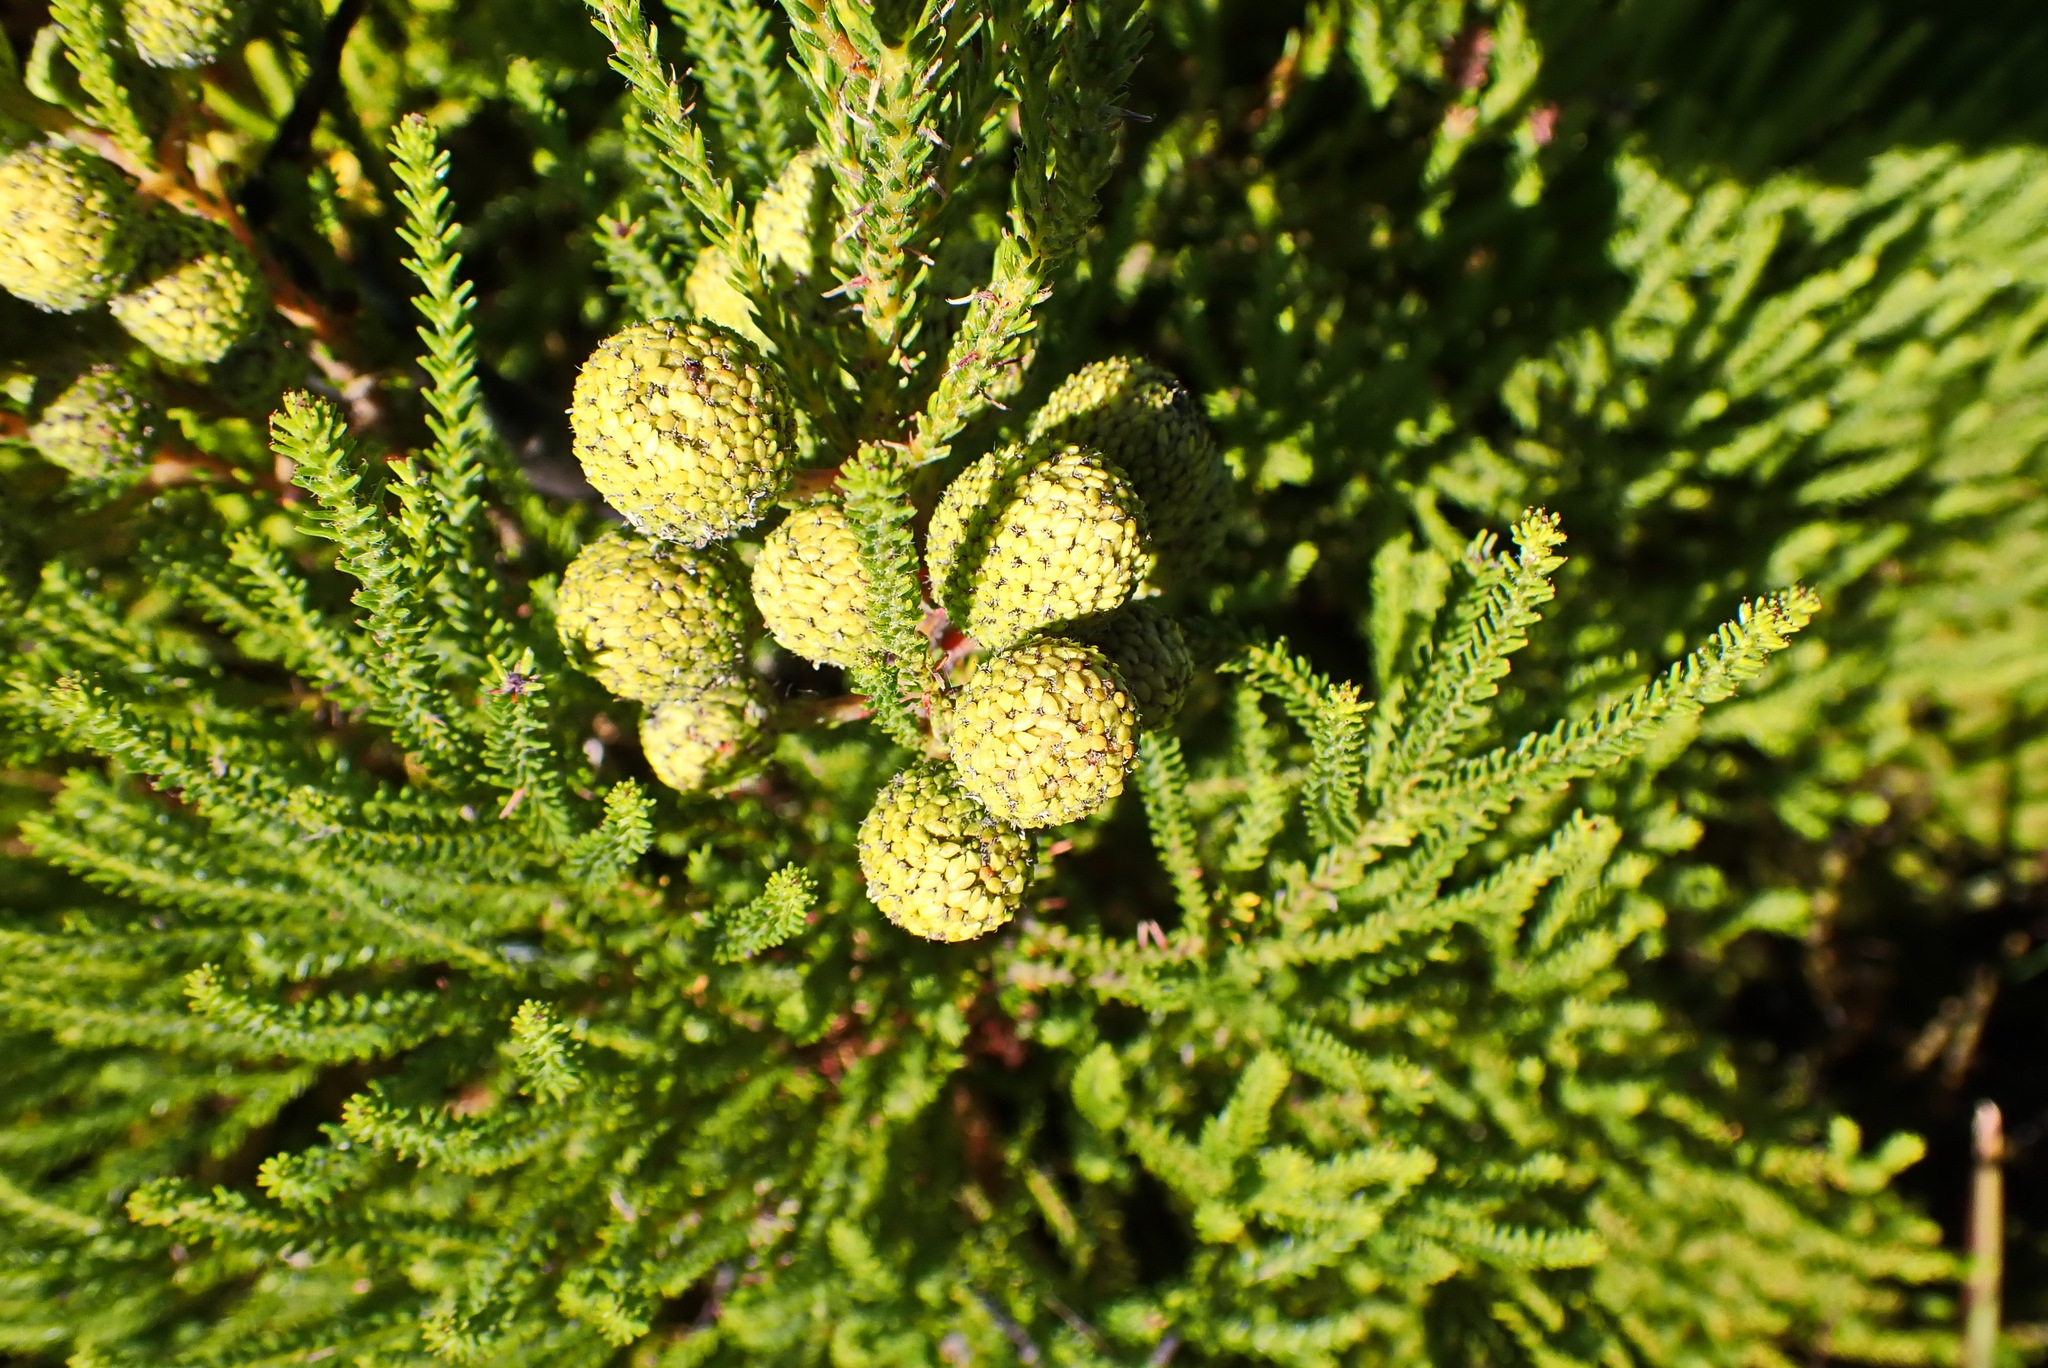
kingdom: Plantae
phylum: Tracheophyta
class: Magnoliopsida
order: Bruniales
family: Bruniaceae
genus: Berzelia
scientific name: Berzelia intermedia
